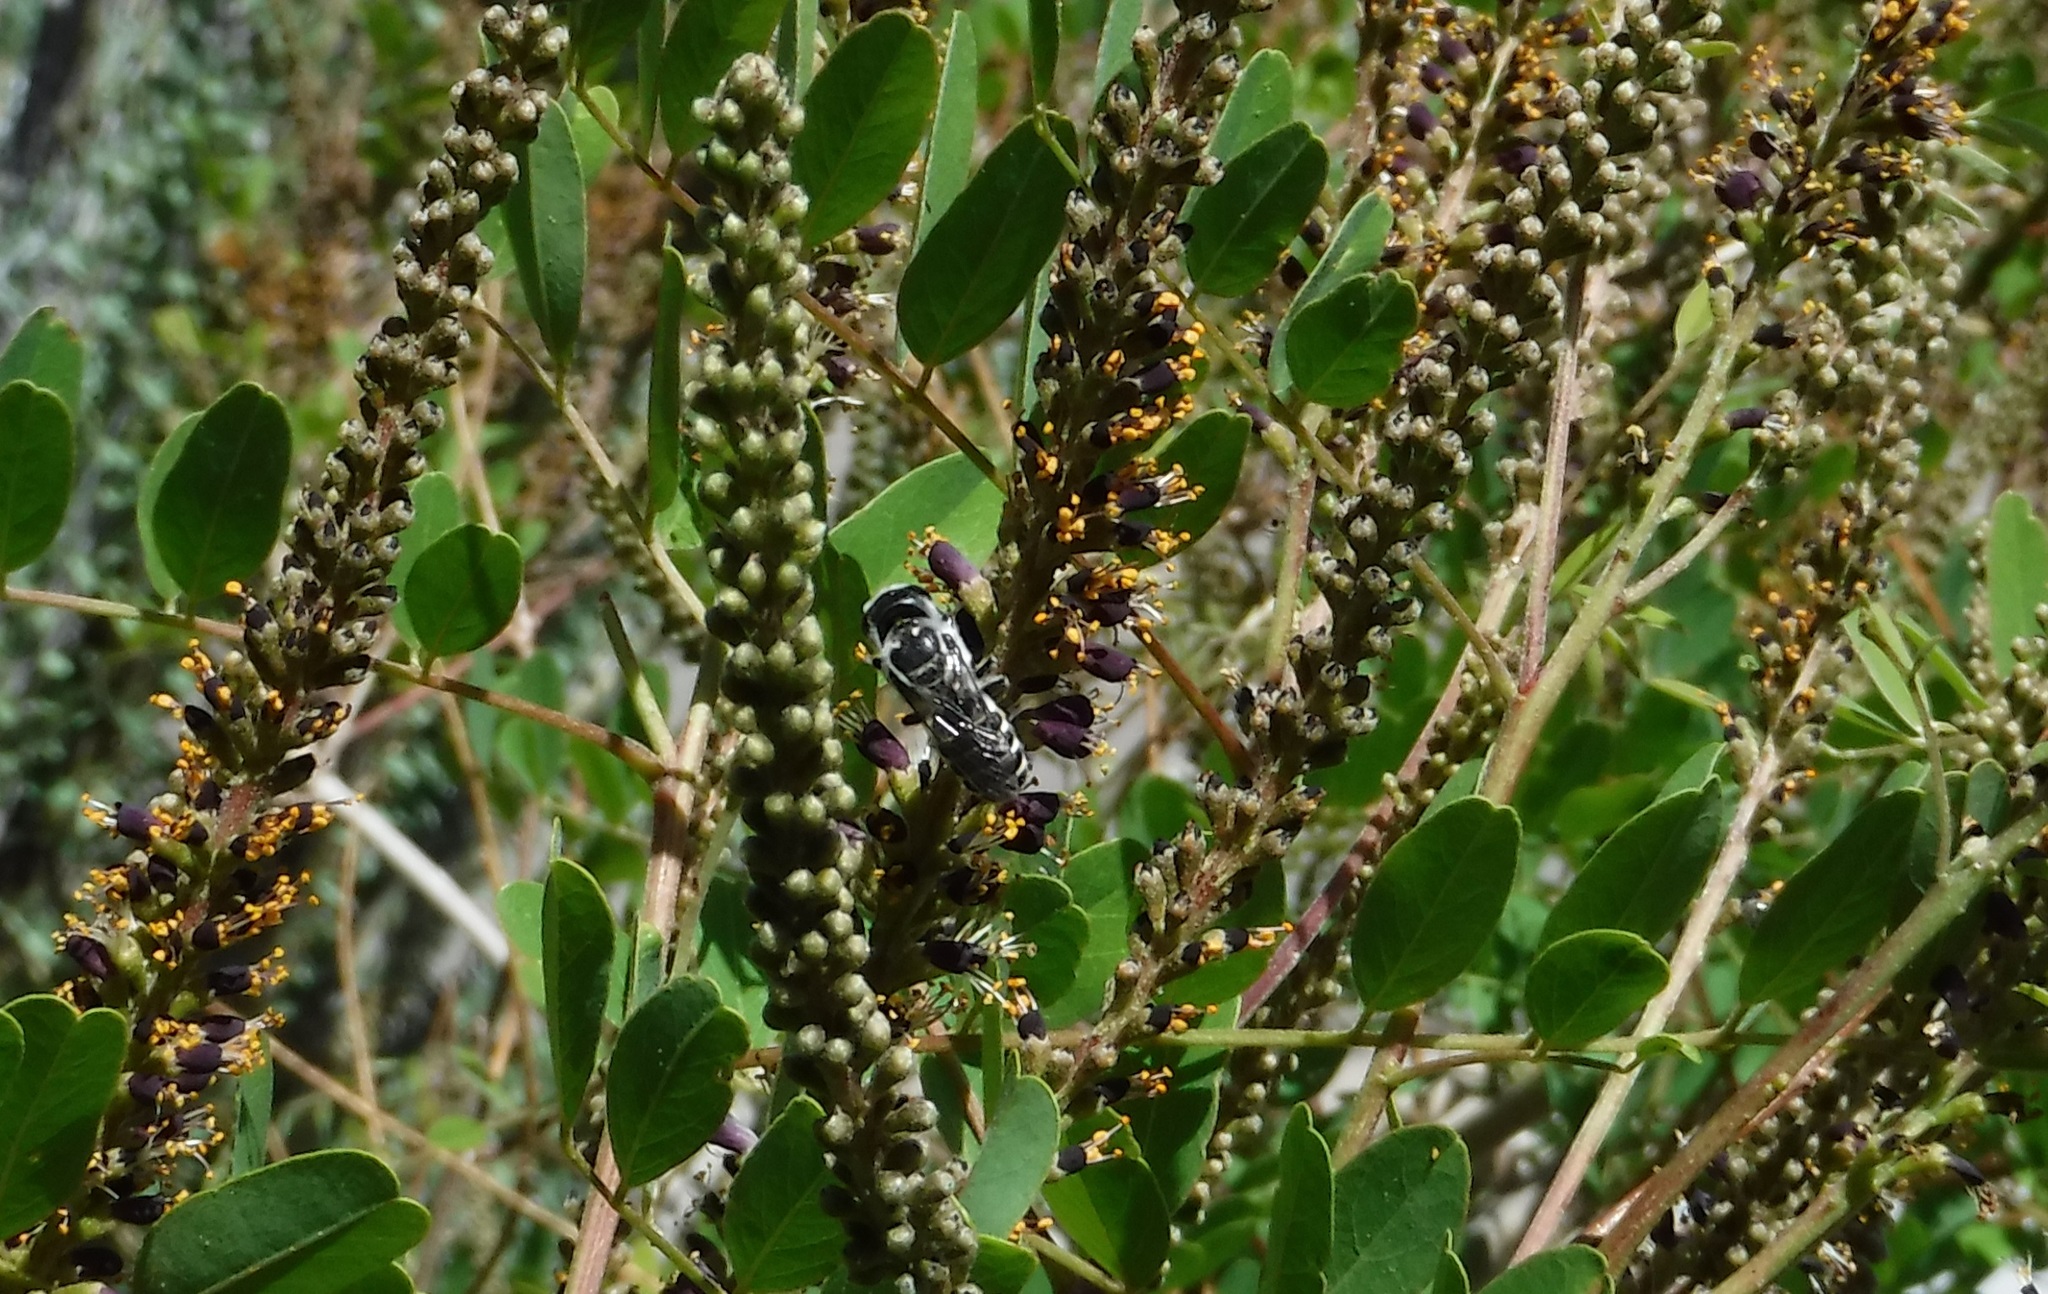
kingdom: Animalia
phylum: Arthropoda
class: Insecta
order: Hymenoptera
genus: Chelostomoides
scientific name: Chelostomoides
